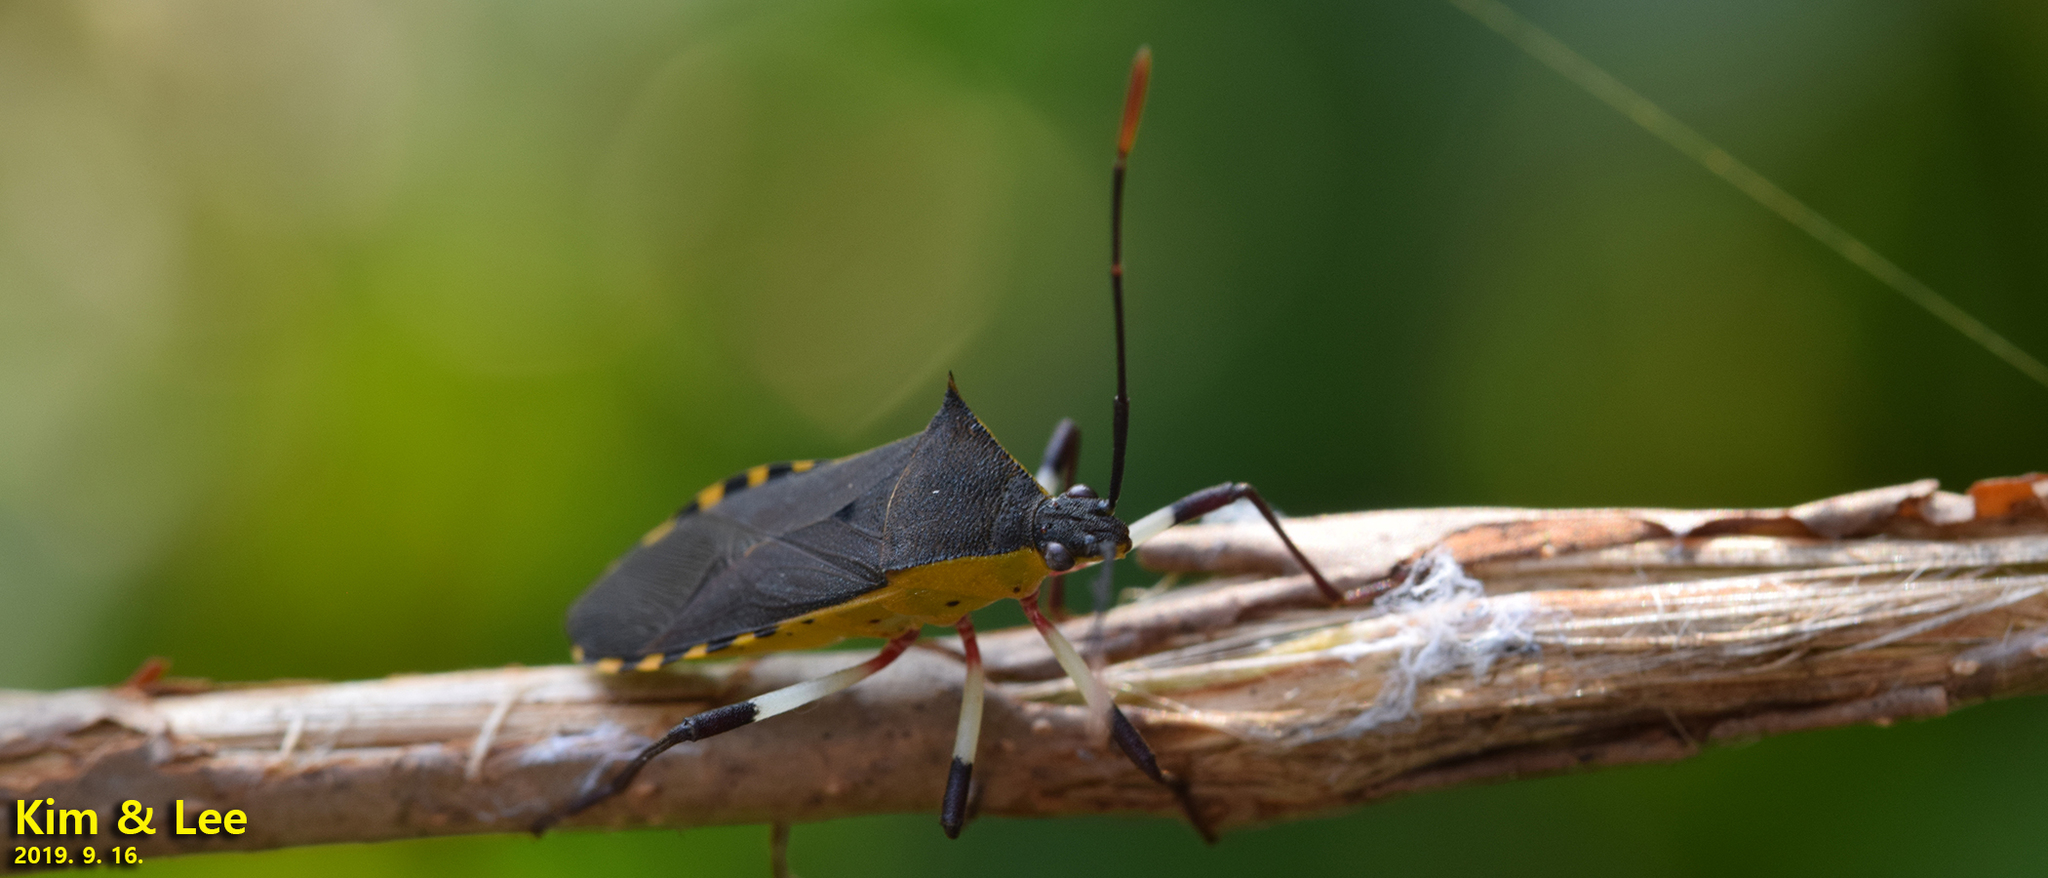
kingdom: Animalia
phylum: Arthropoda
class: Insecta
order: Hemiptera
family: Coreidae
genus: Plinachtus
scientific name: Plinachtus bicoloripes
